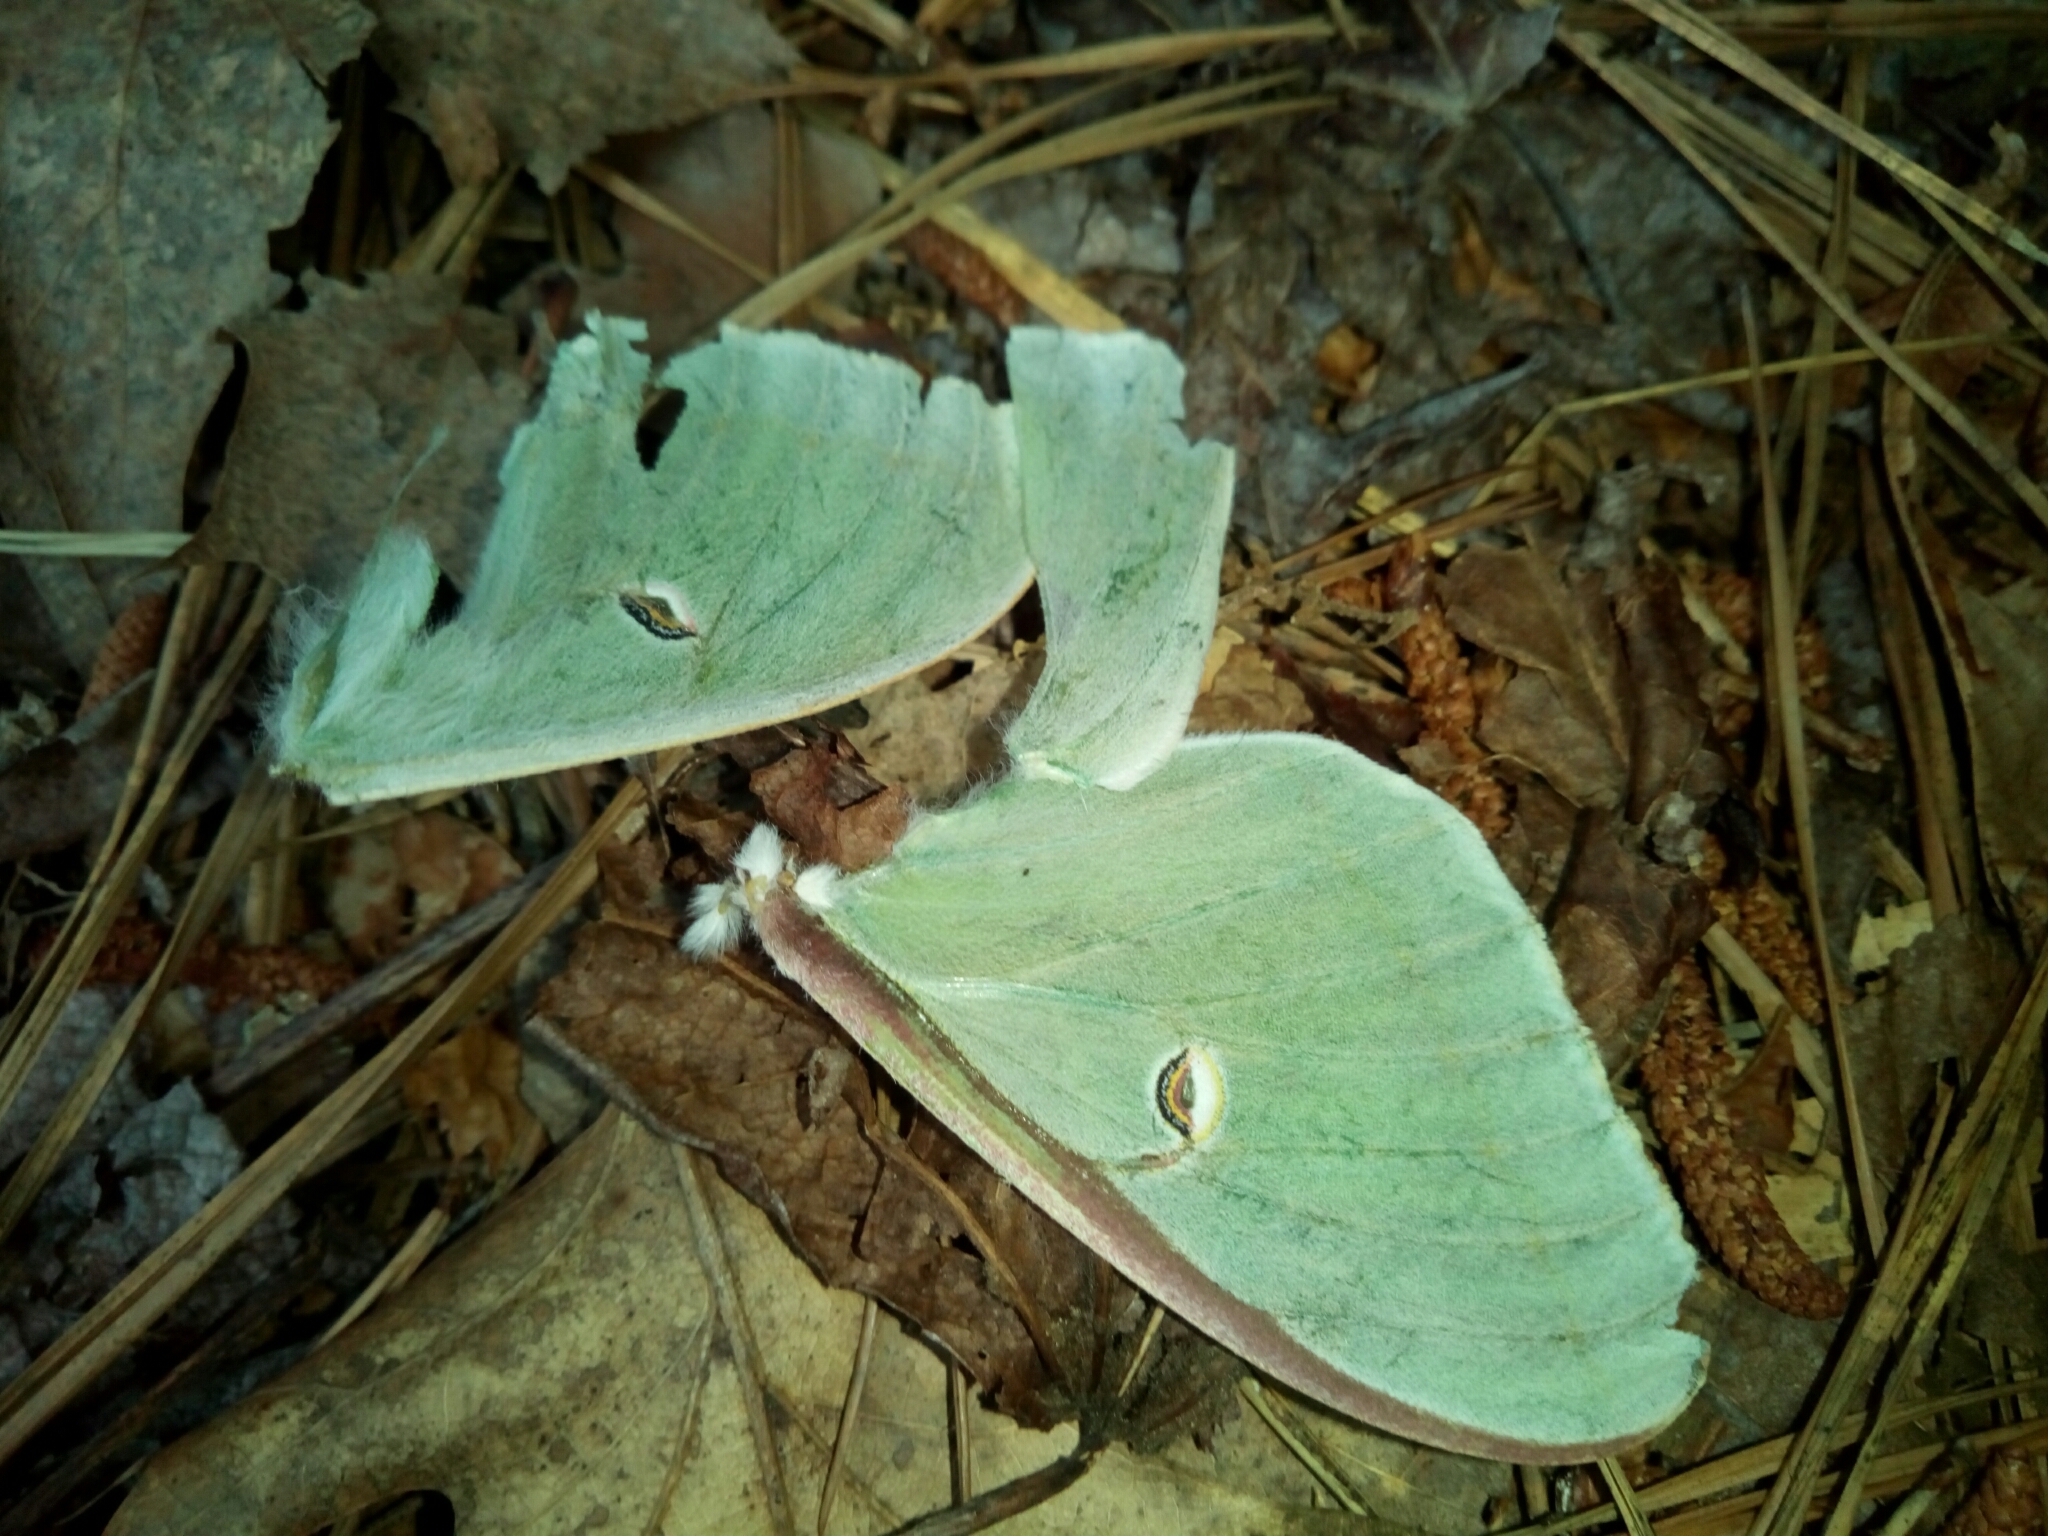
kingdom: Animalia
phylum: Arthropoda
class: Insecta
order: Lepidoptera
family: Saturniidae
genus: Actias
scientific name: Actias luna
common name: Luna moth
